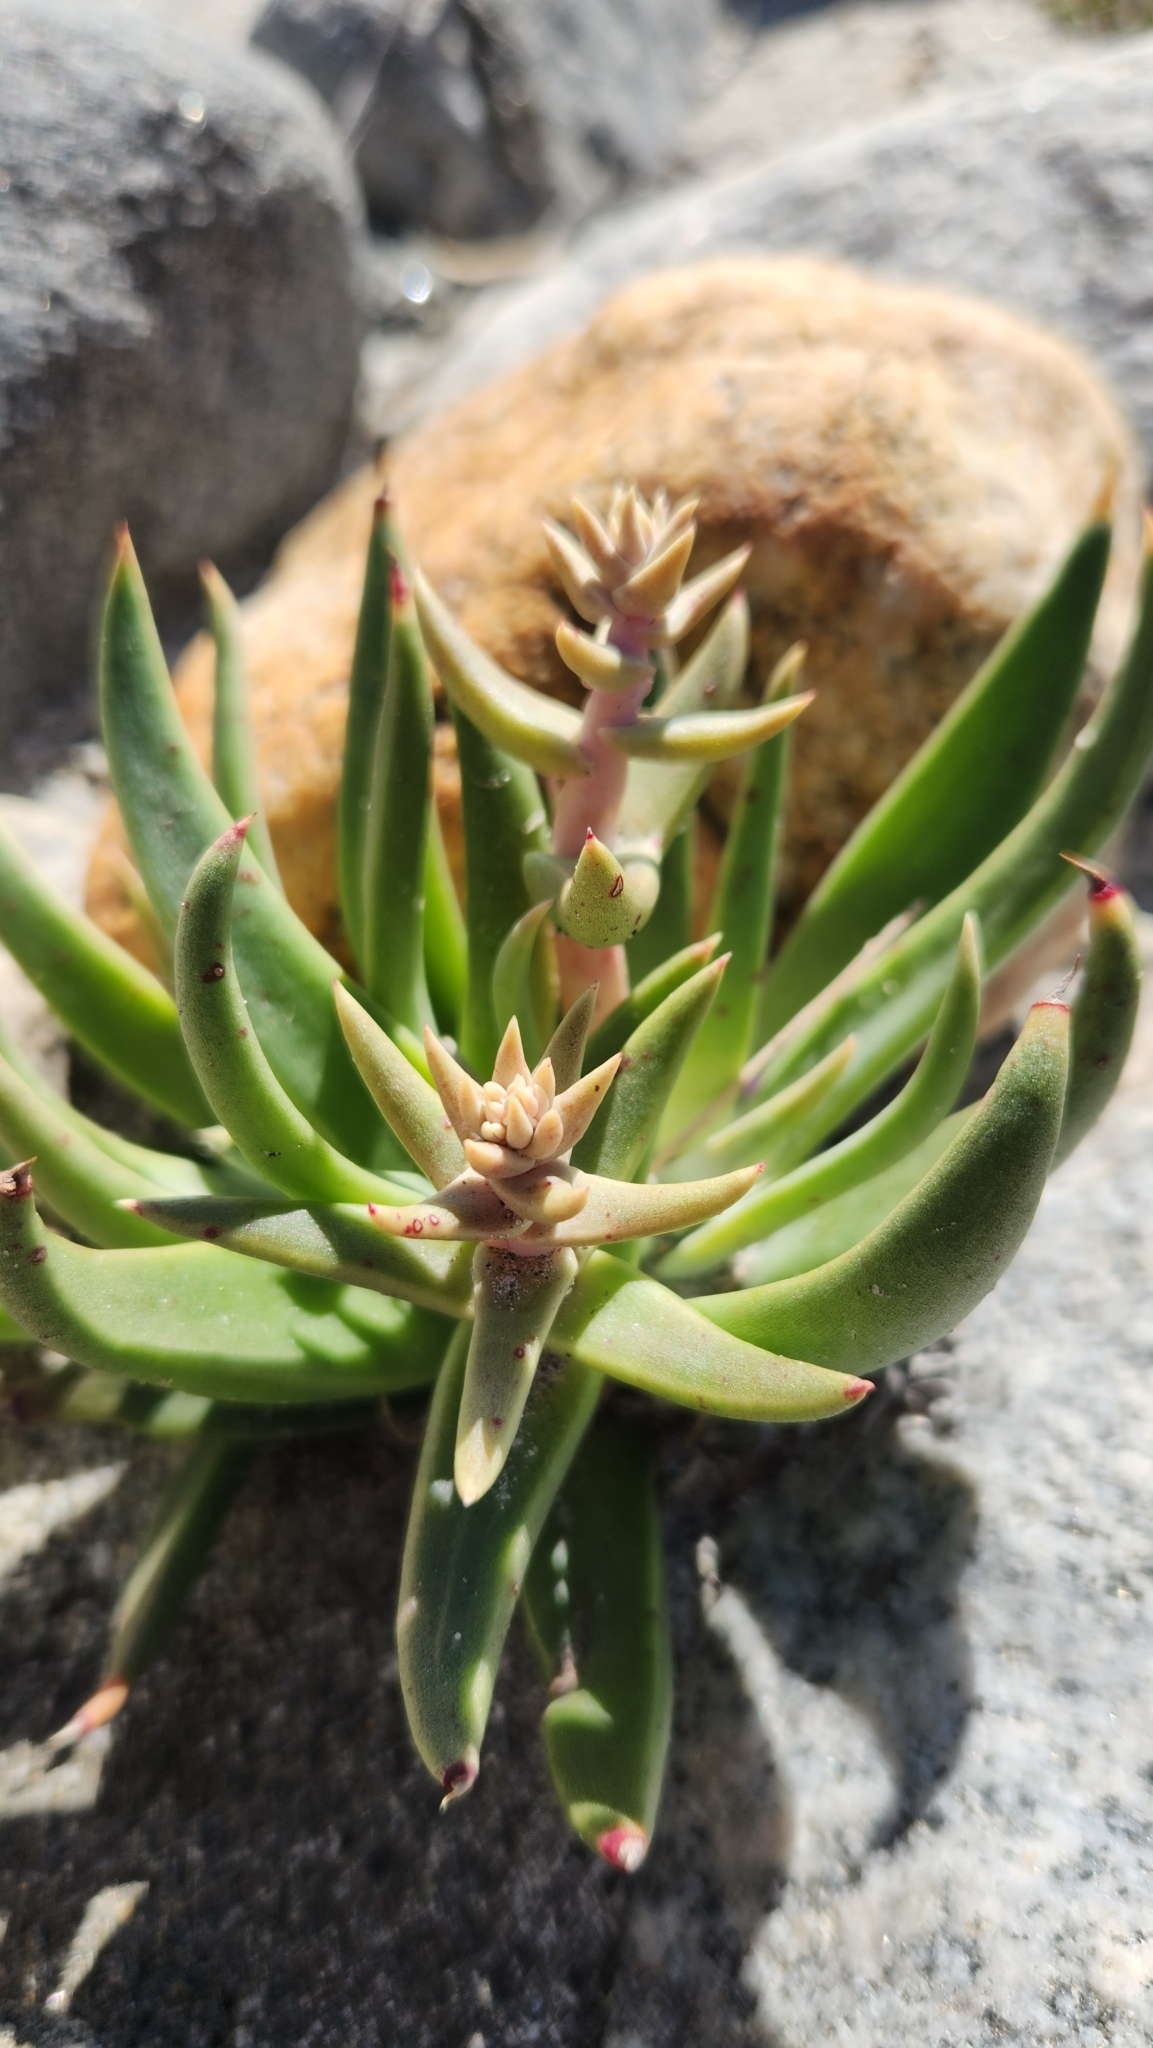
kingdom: Plantae
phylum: Tracheophyta
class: Magnoliopsida
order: Saxifragales
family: Crassulaceae
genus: Dudleya
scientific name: Dudleya saxosa
